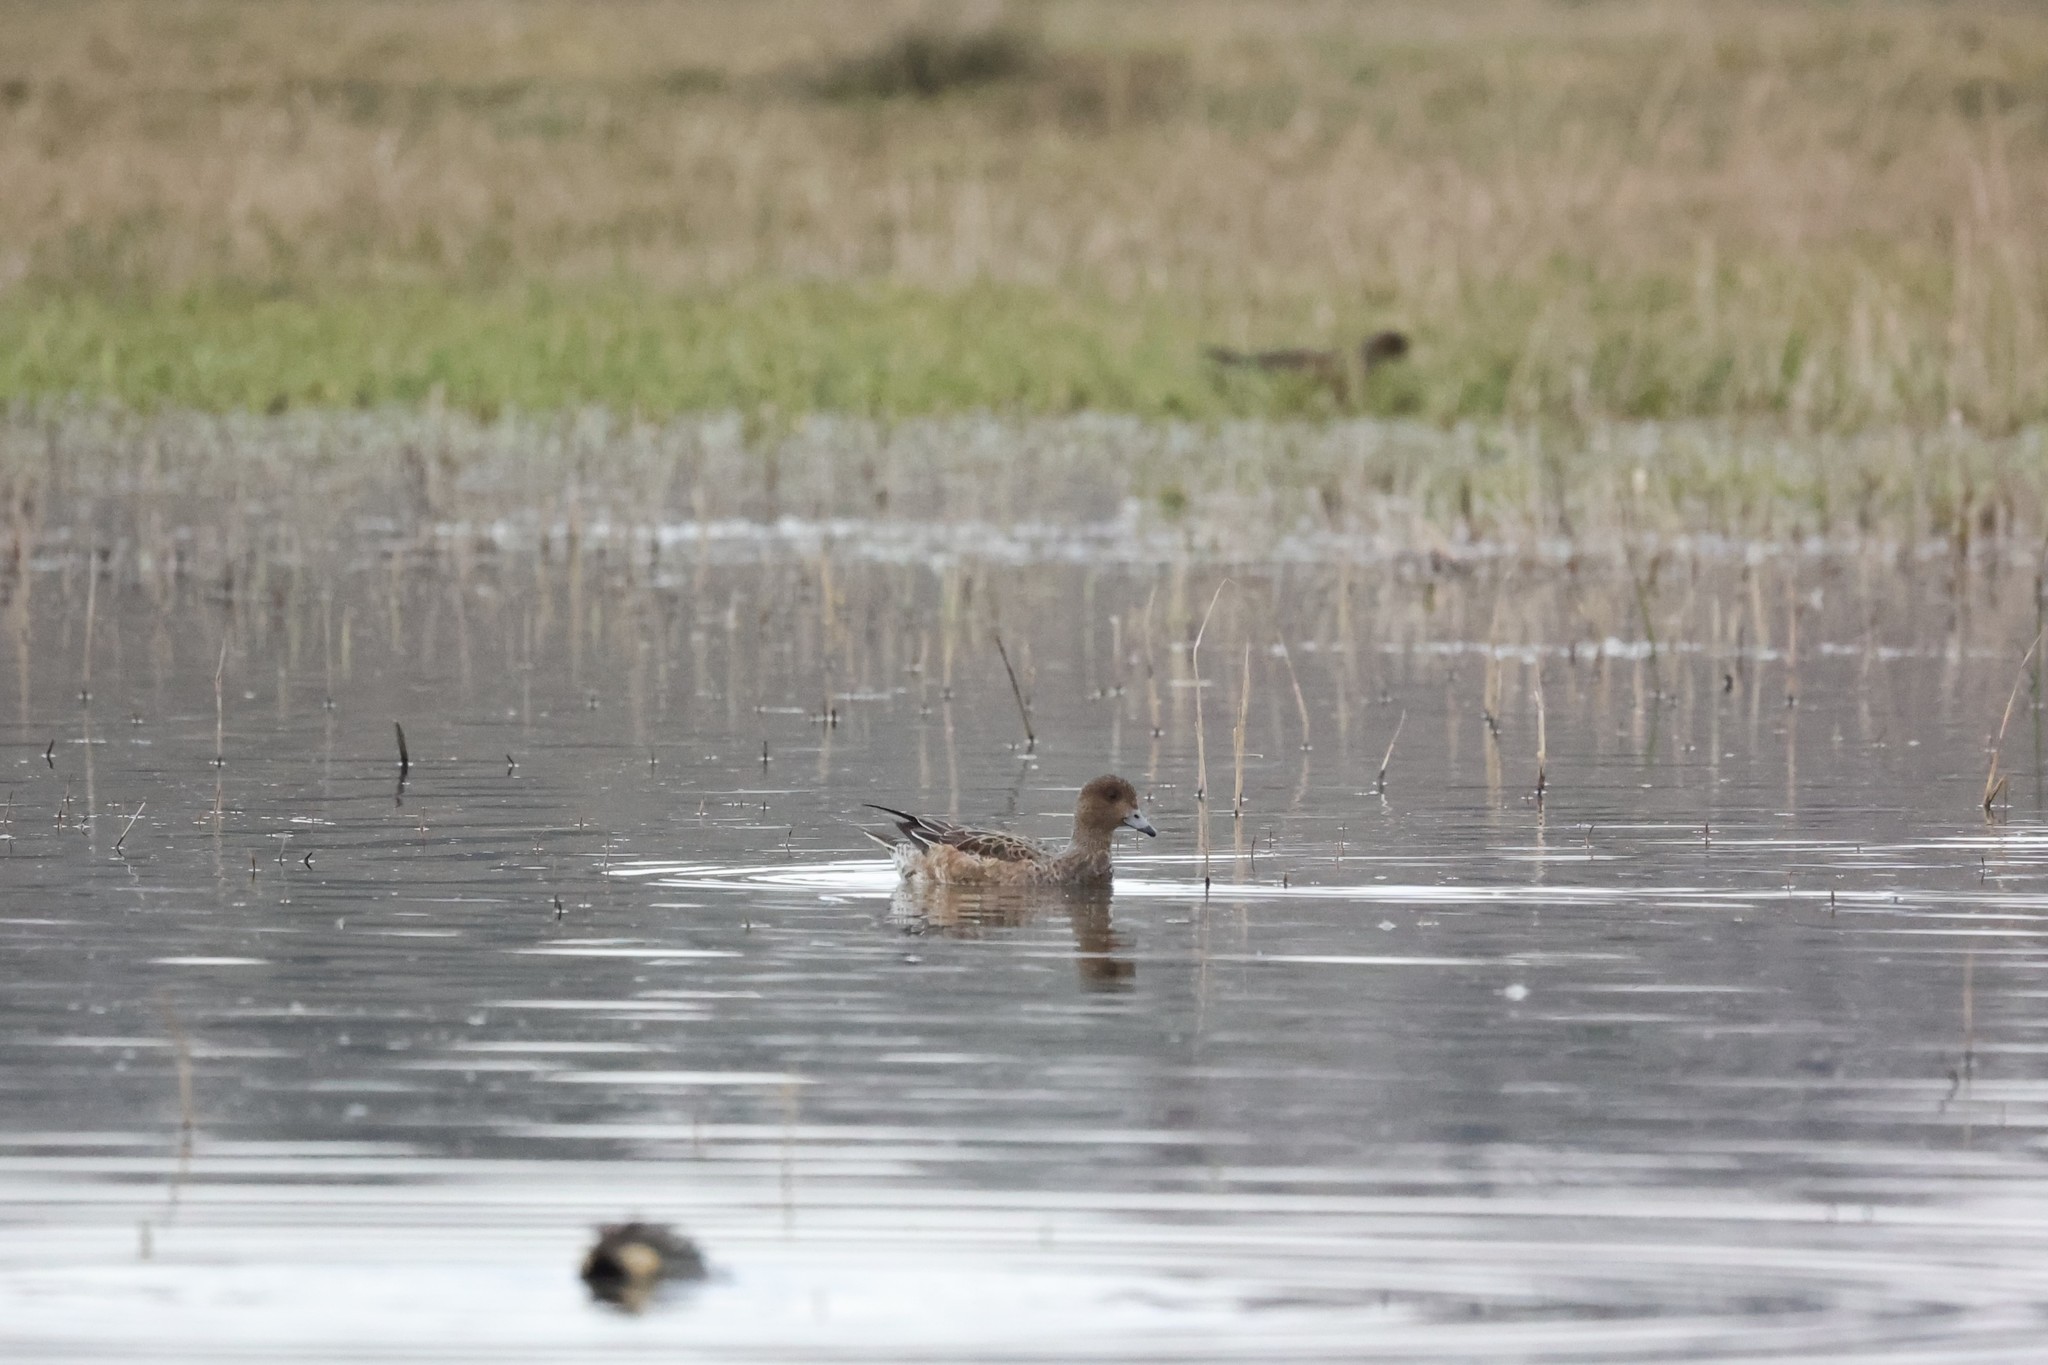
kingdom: Animalia
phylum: Chordata
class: Aves
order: Anseriformes
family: Anatidae
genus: Mareca
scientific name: Mareca penelope
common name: Eurasian wigeon
